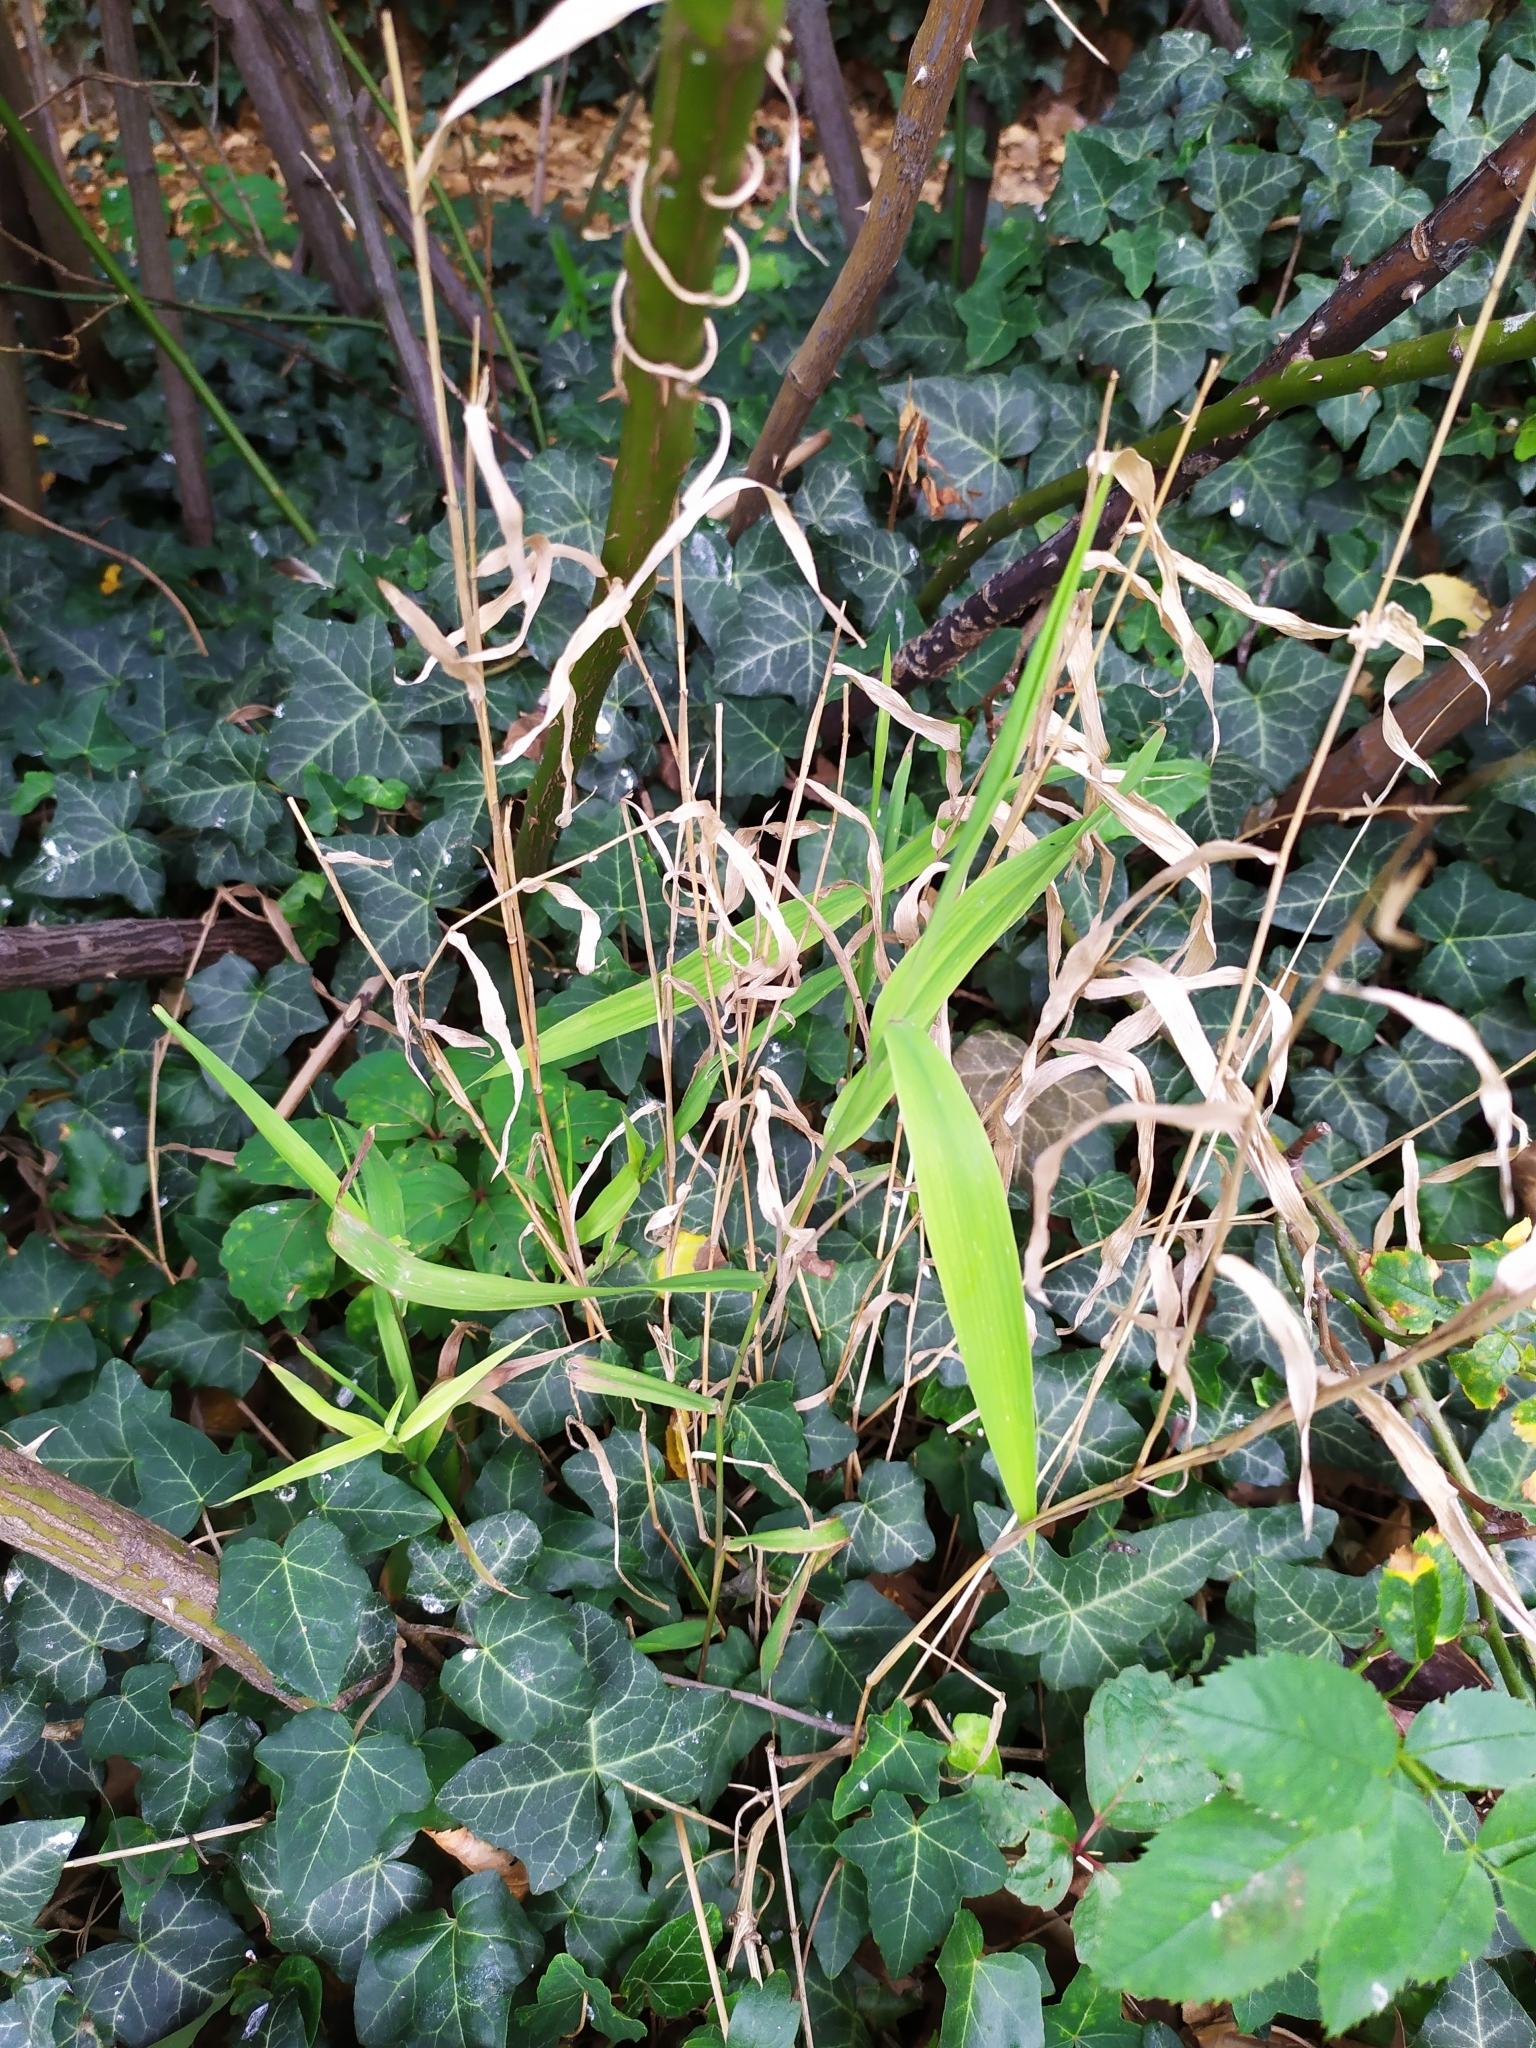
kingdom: Plantae
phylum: Tracheophyta
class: Liliopsida
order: Poales
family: Poaceae
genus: Chasmanthium
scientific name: Chasmanthium latifolium
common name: Broad-leaved chasmanthium
